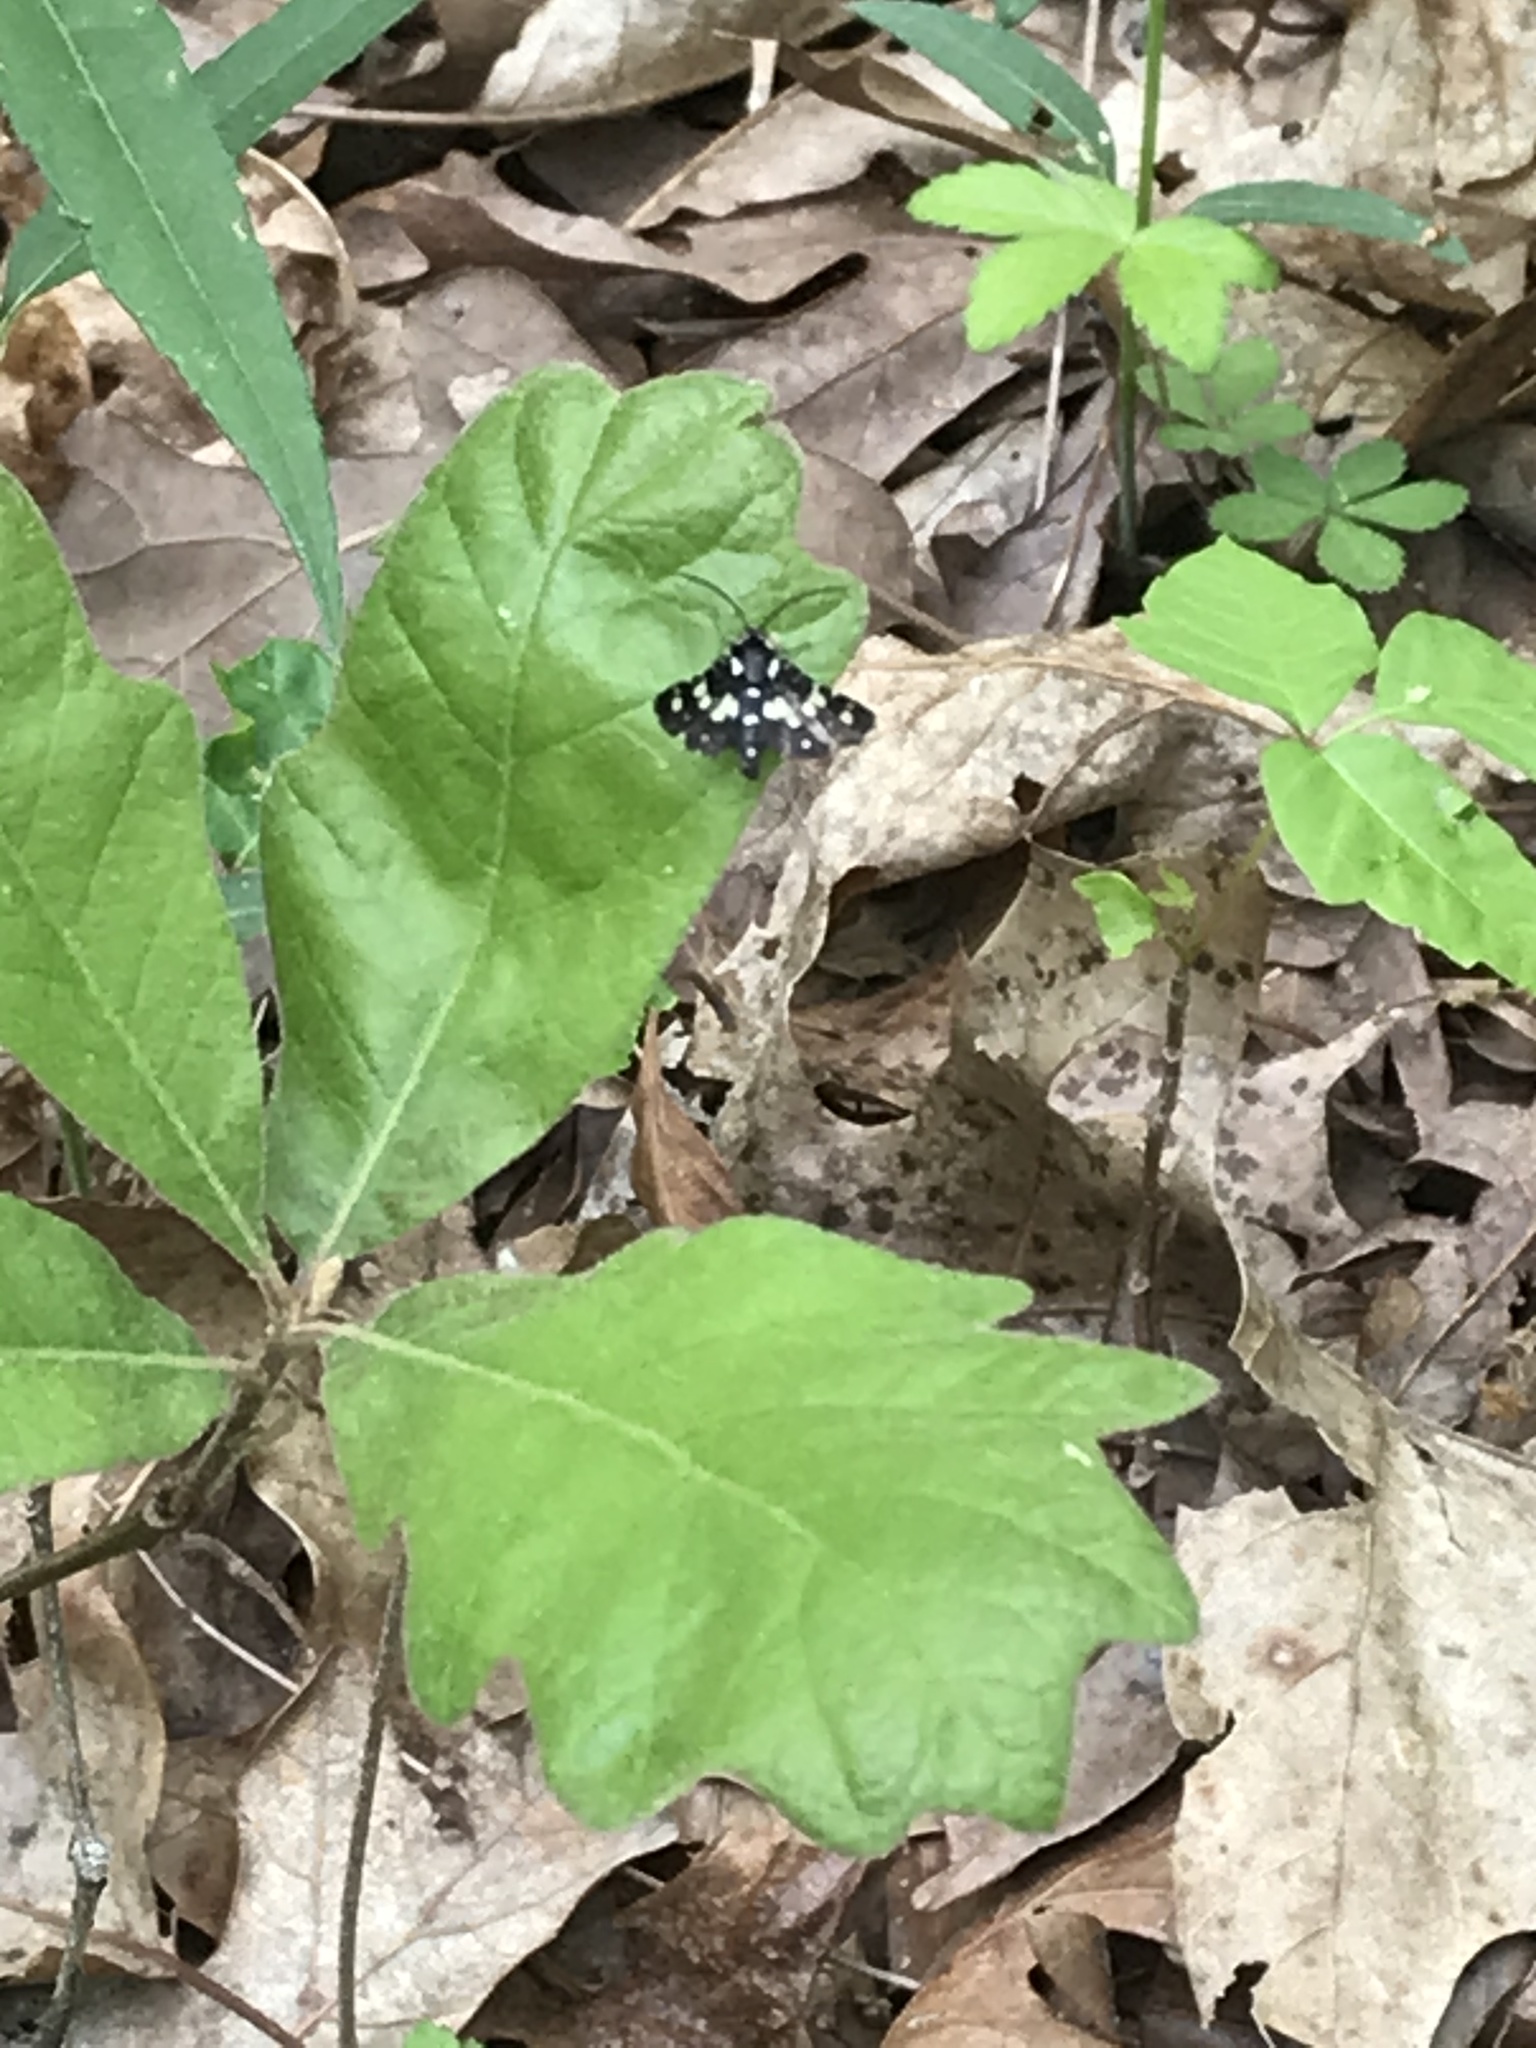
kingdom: Animalia
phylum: Arthropoda
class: Insecta
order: Lepidoptera
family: Thyrididae
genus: Pseudothyris
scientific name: Pseudothyris sepulchralis
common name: Mournful thyris moth
